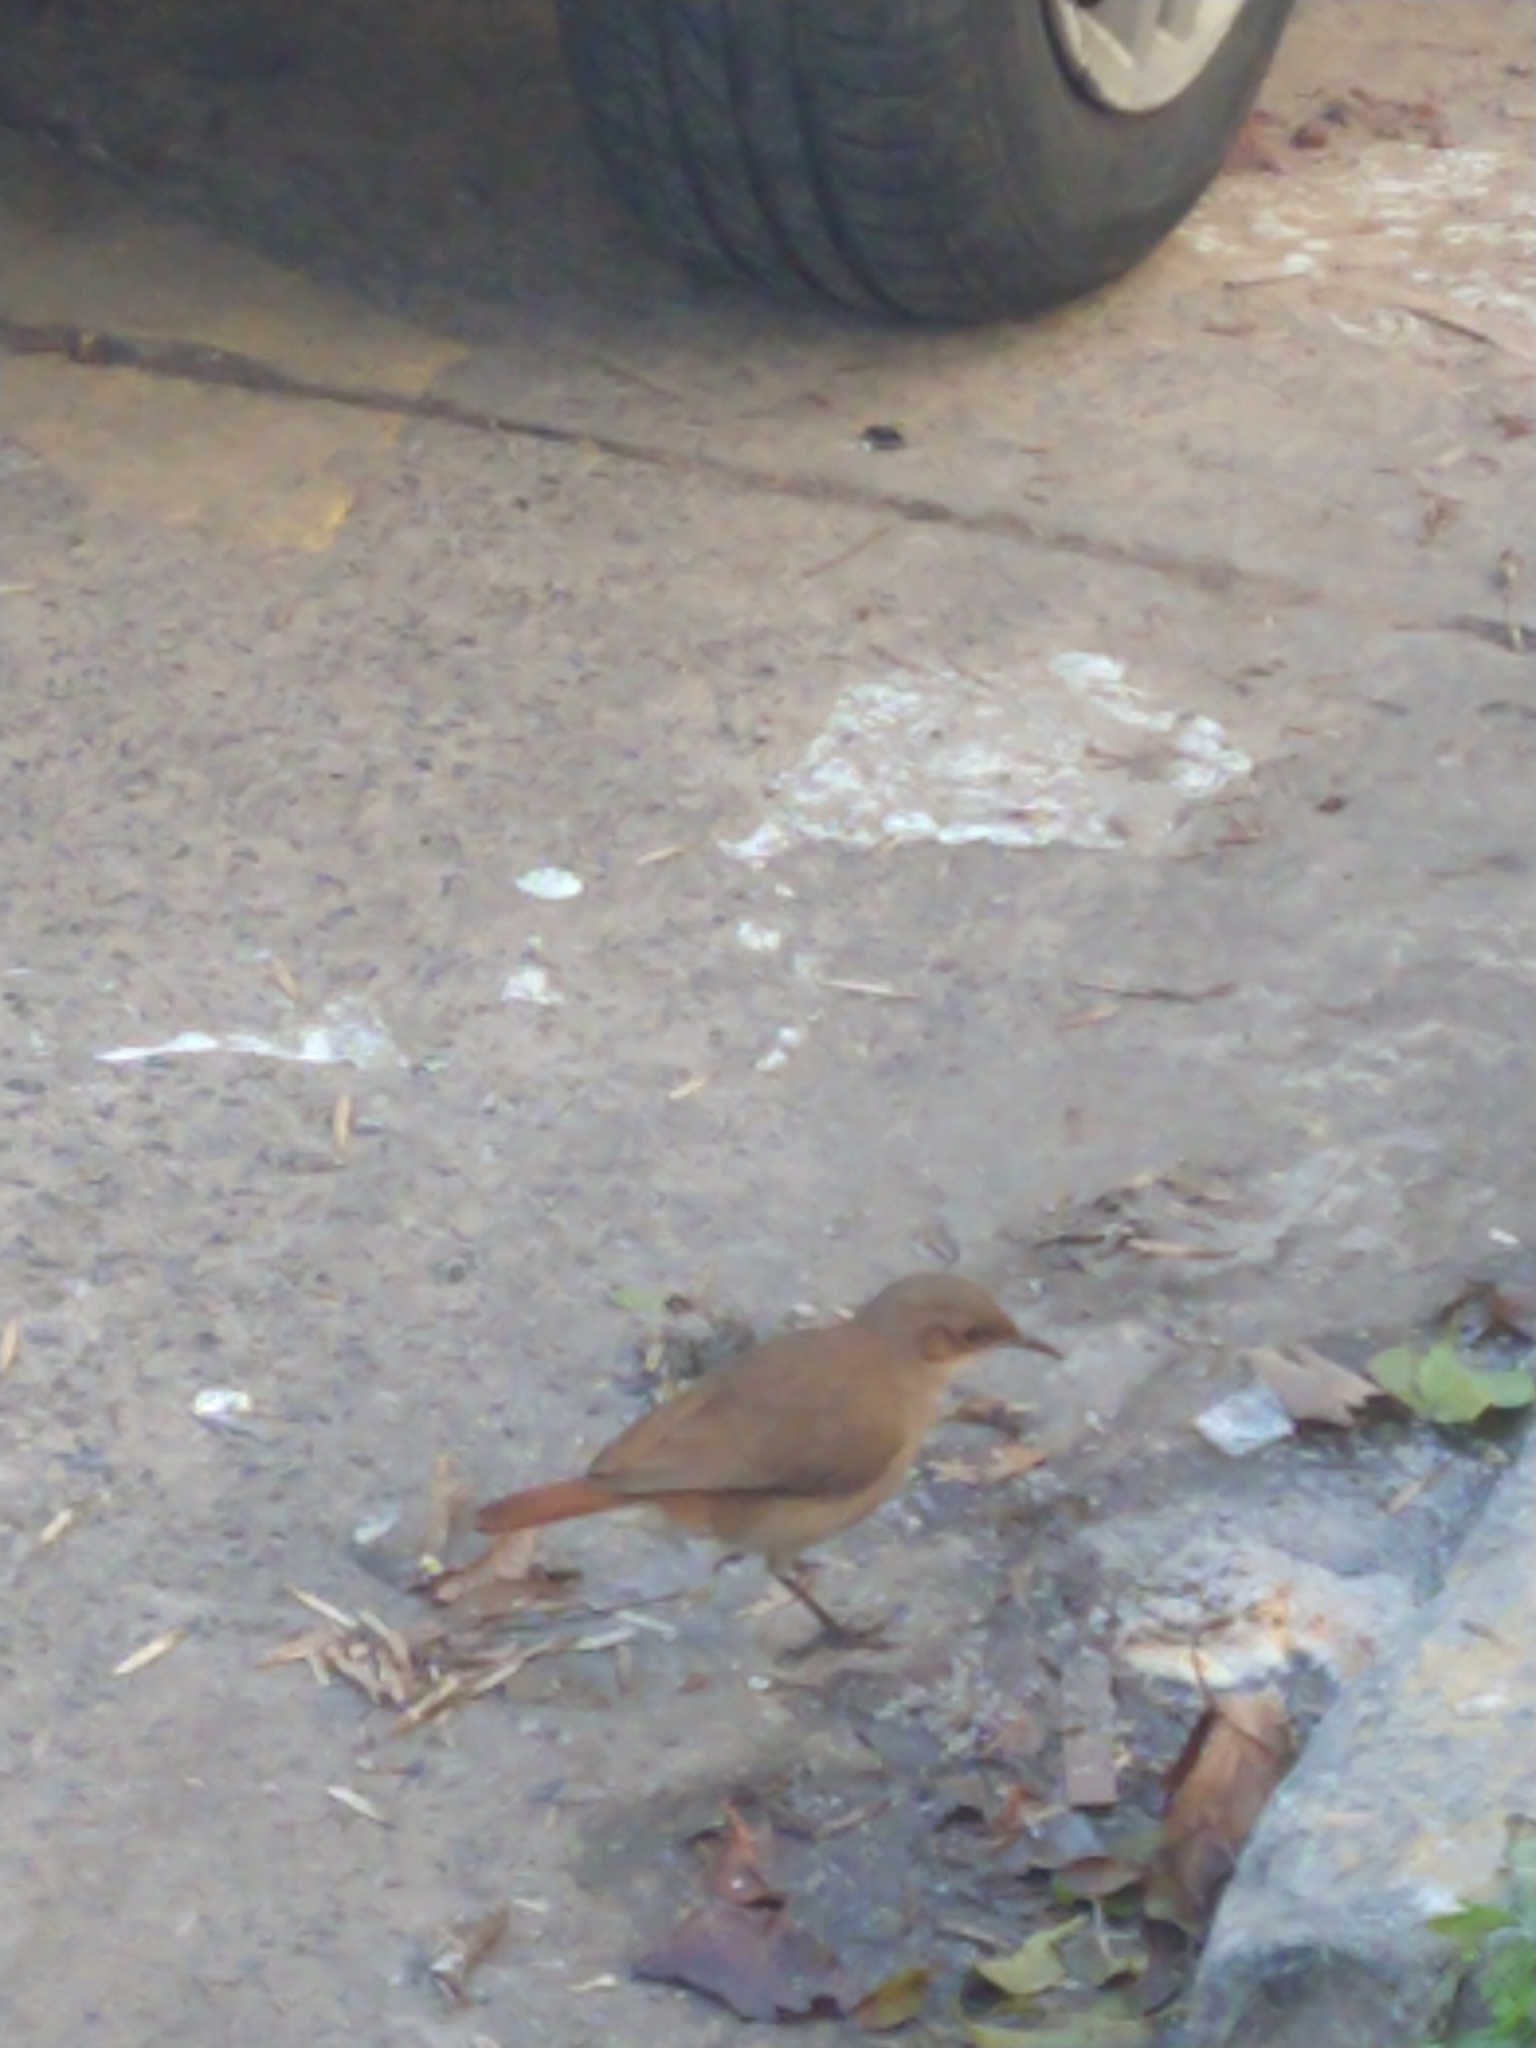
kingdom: Animalia
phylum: Chordata
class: Aves
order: Passeriformes
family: Furnariidae
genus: Furnarius
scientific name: Furnarius rufus
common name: Rufous hornero
